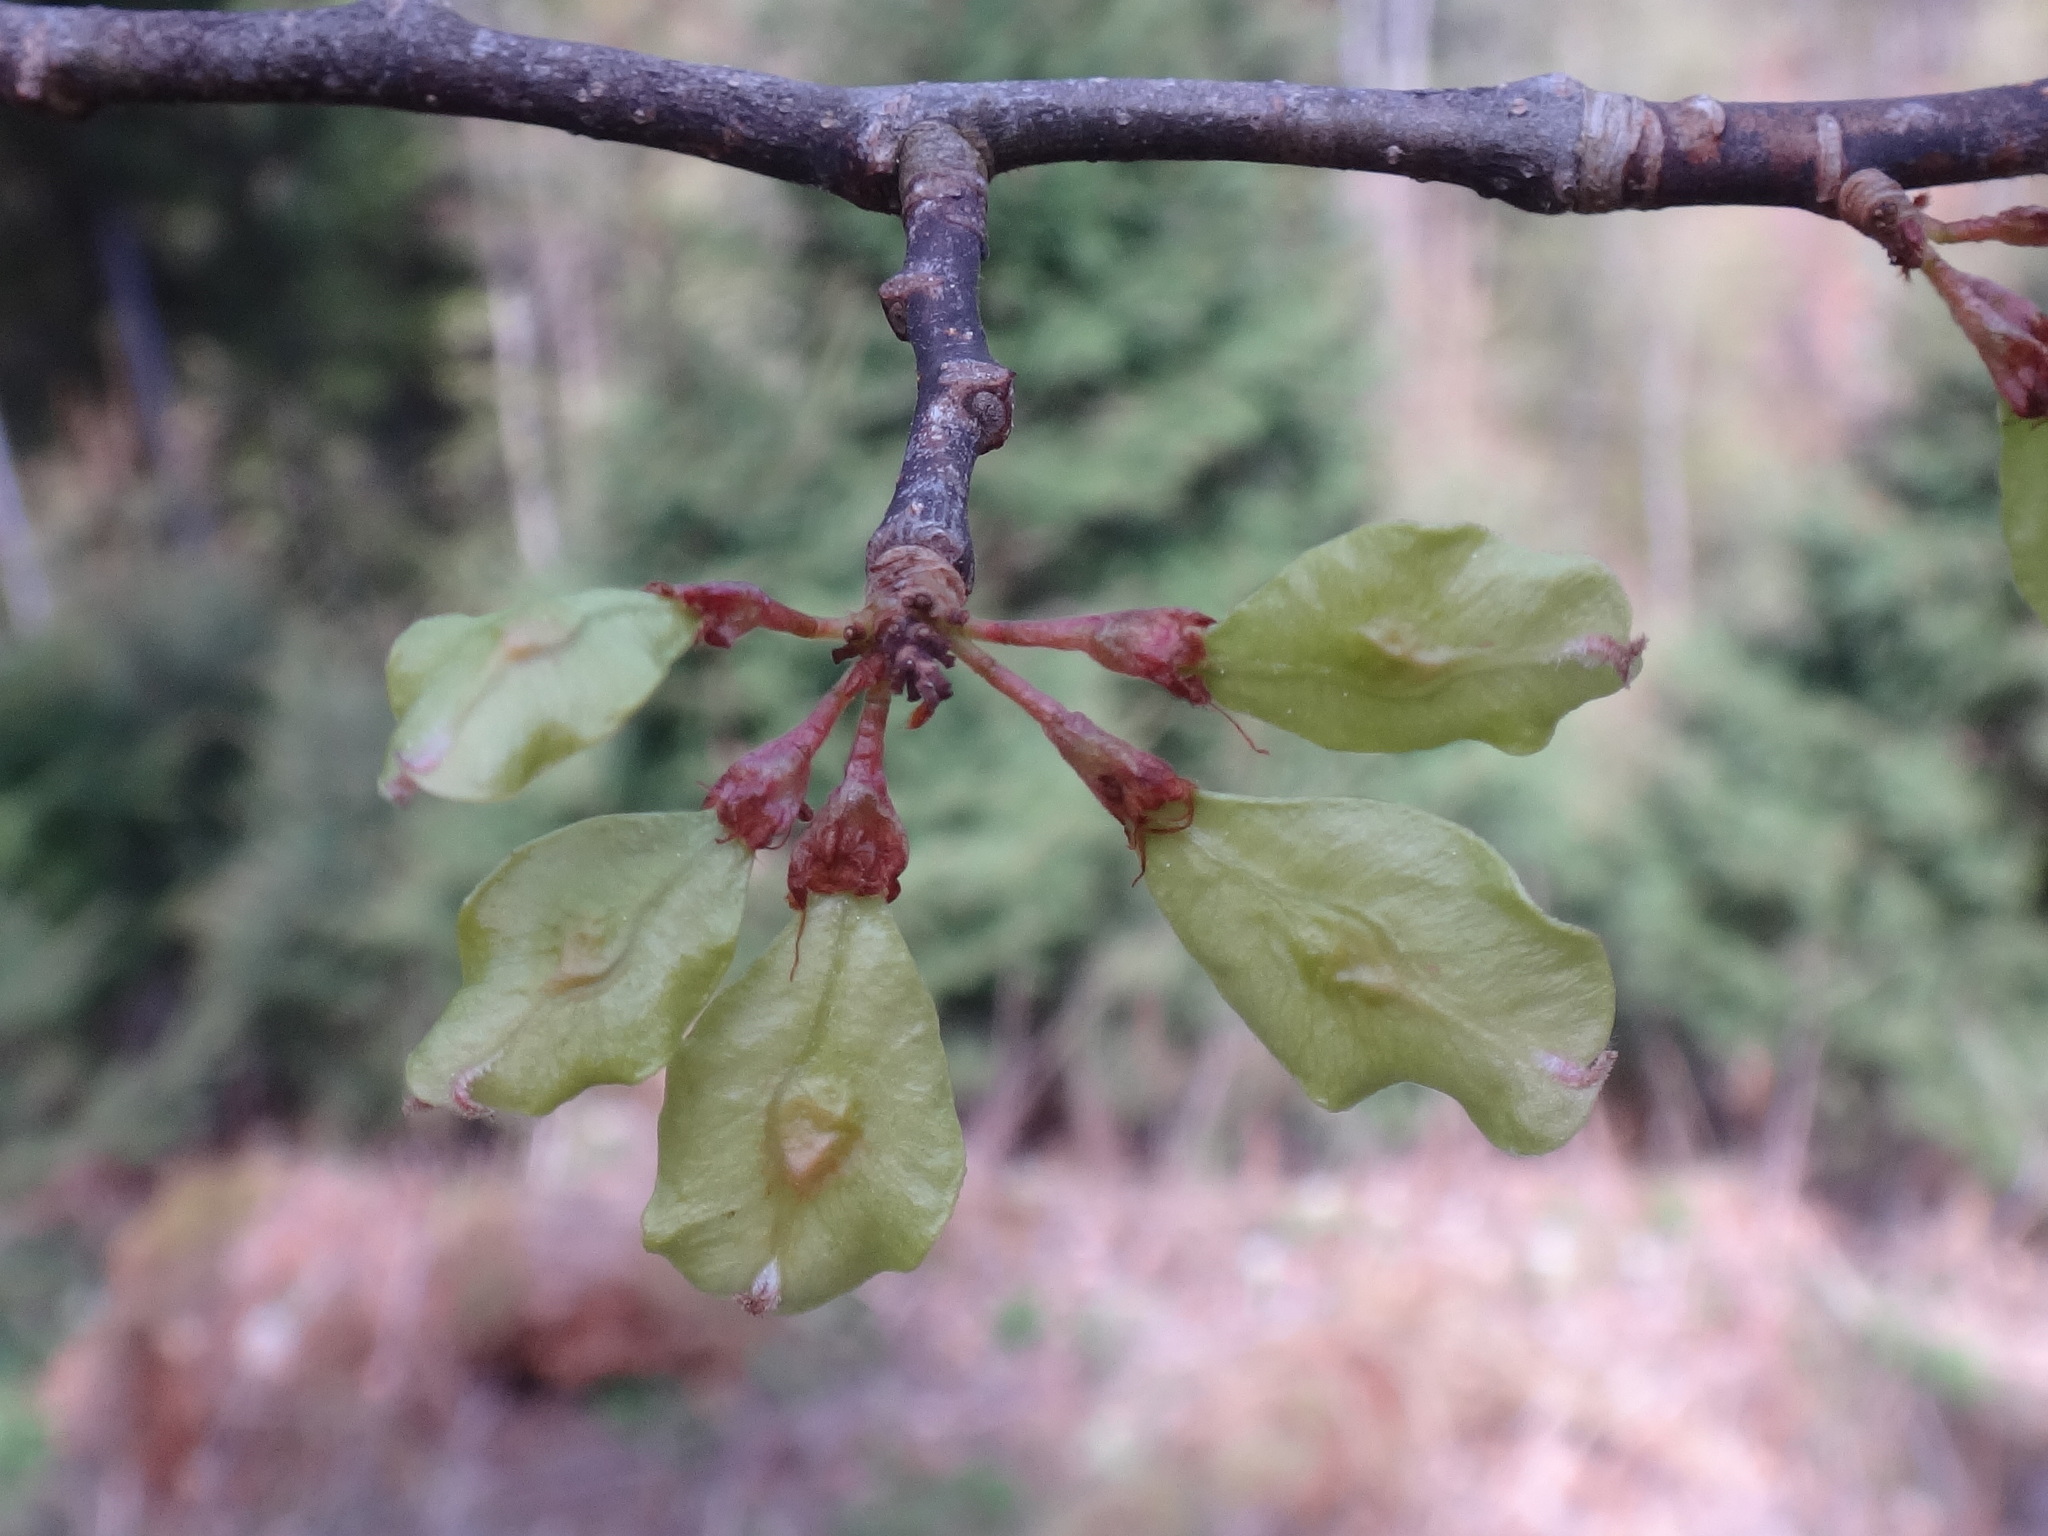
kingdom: Plantae
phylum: Tracheophyta
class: Magnoliopsida
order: Rosales
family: Ulmaceae
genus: Ulmus
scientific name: Ulmus glabra
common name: Wych elm
